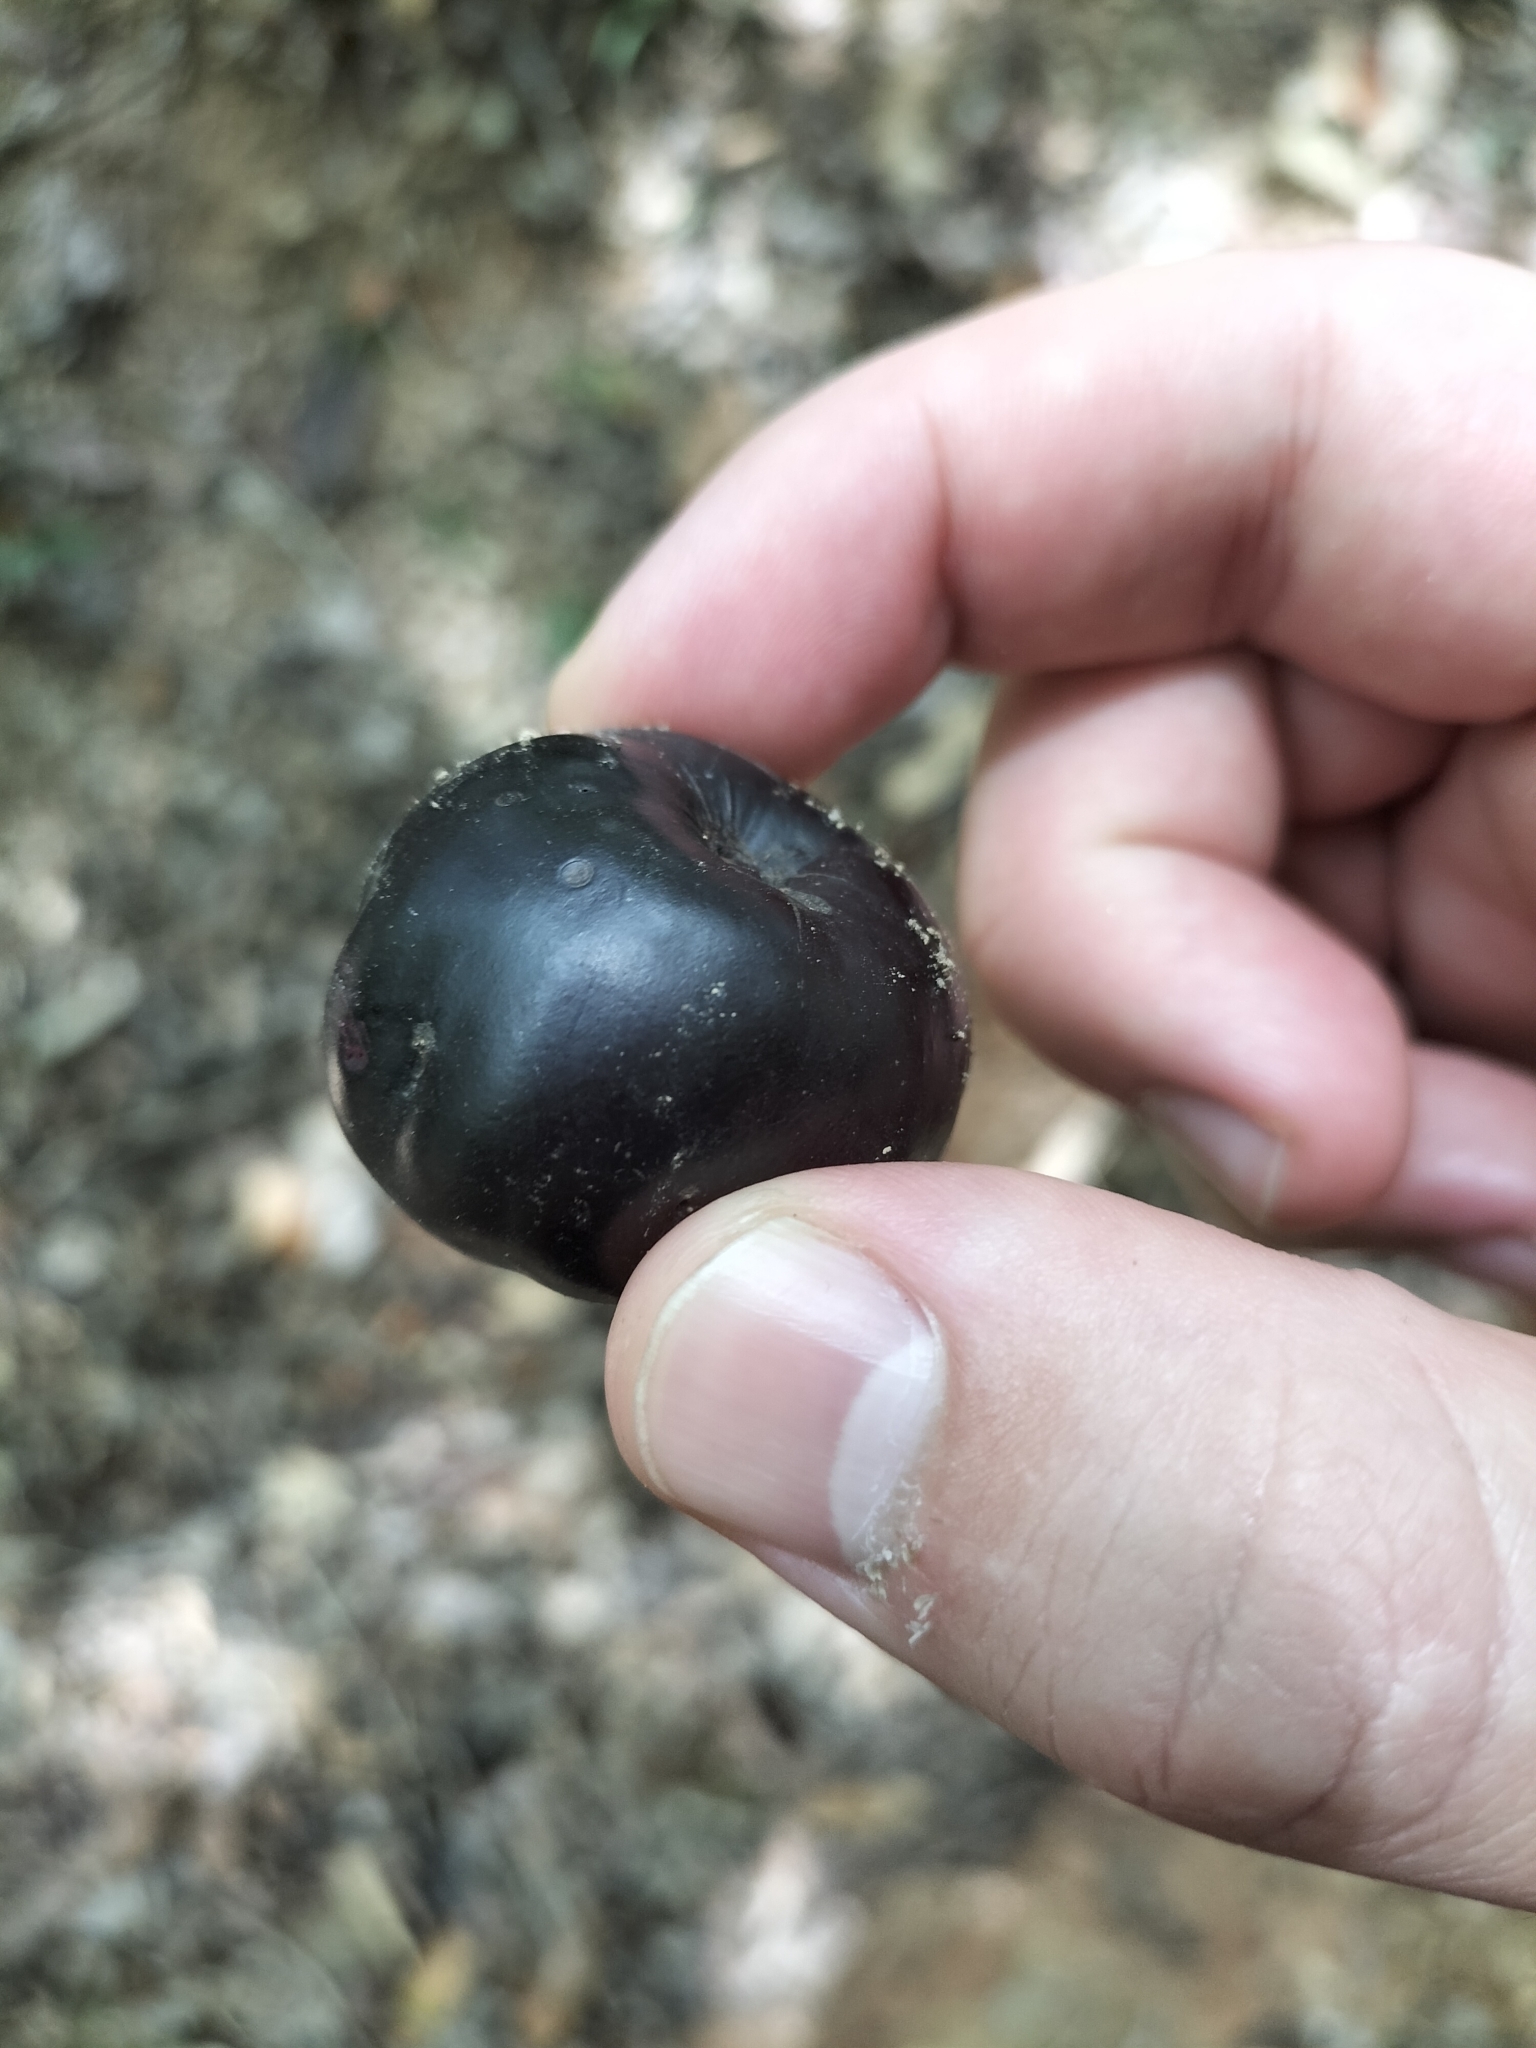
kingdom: Plantae
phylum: Tracheophyta
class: Magnoliopsida
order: Sapindales
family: Anacardiaceae
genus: Pleiogynium
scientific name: Pleiogynium timoriense
